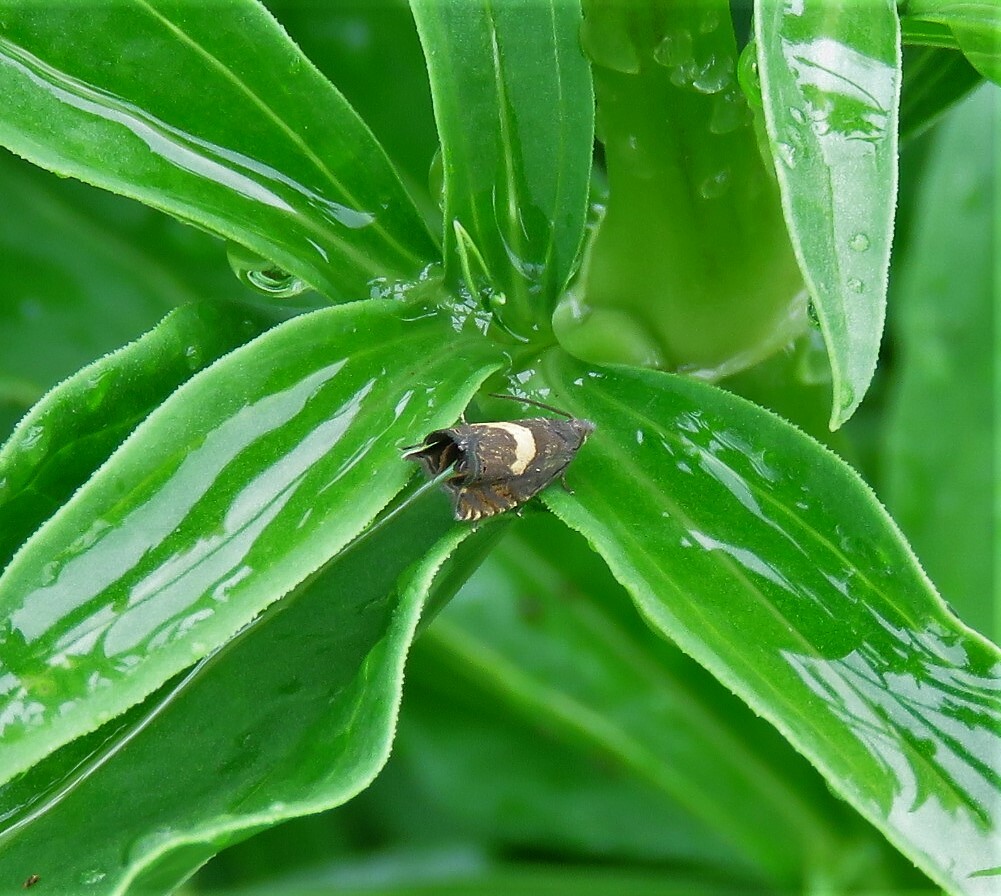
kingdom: Animalia
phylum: Arthropoda
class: Insecta
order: Lepidoptera
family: Tortricidae
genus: Dichrorampha
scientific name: Dichrorampha petiverella
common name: Common drill
